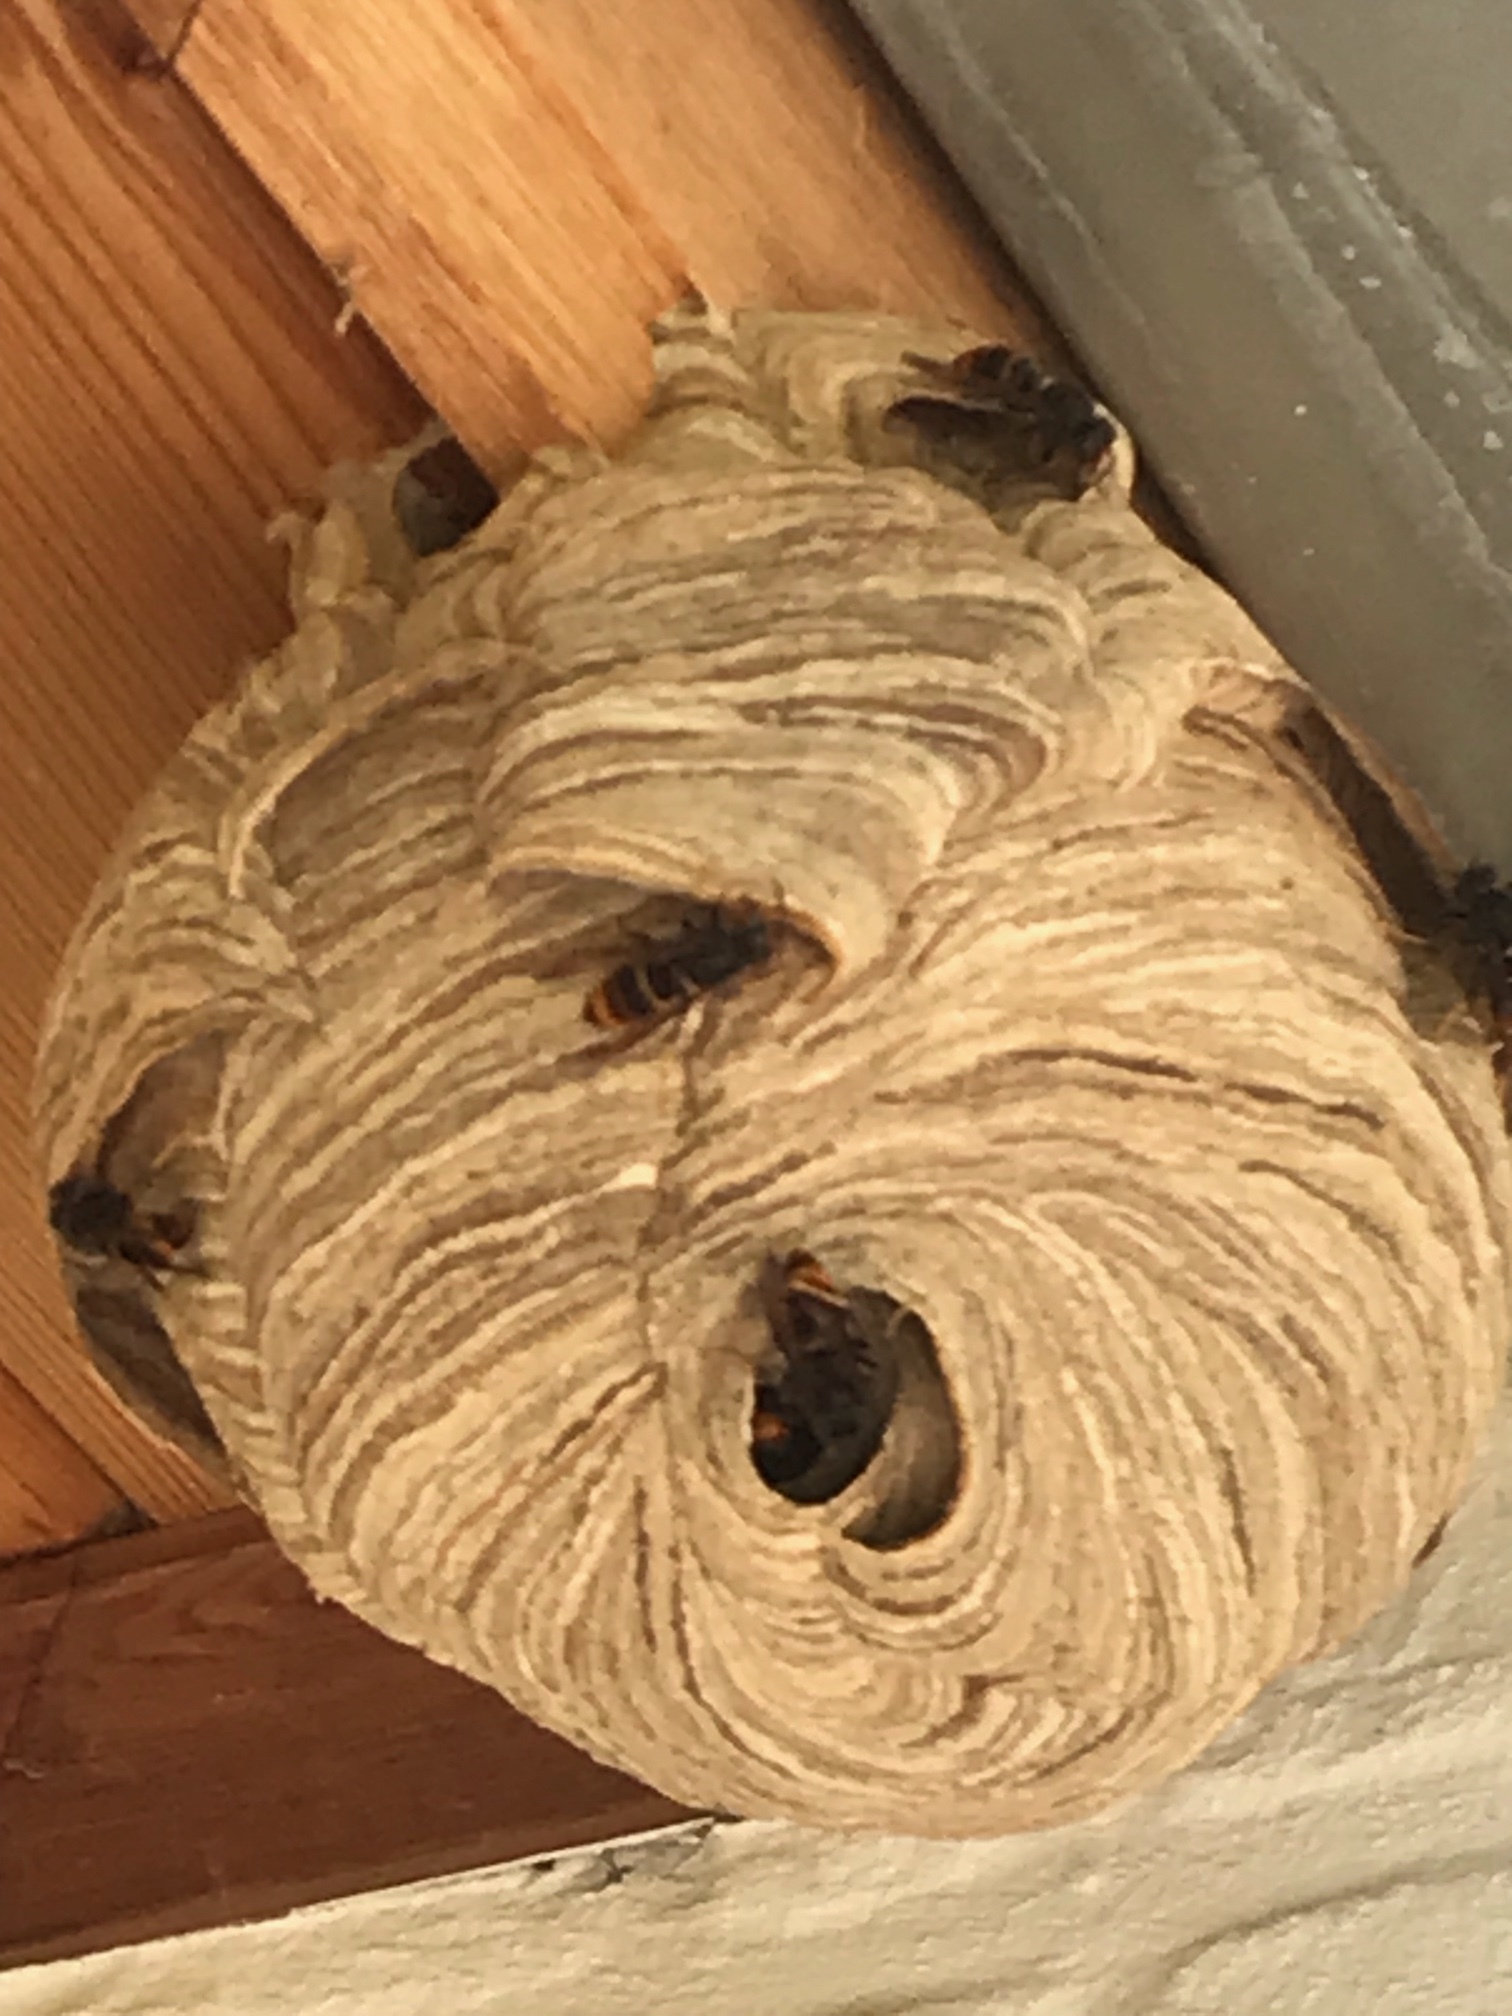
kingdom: Animalia
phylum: Arthropoda
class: Insecta
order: Hymenoptera
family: Vespidae
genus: Vespa
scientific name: Vespa velutina
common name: Asian hornet
